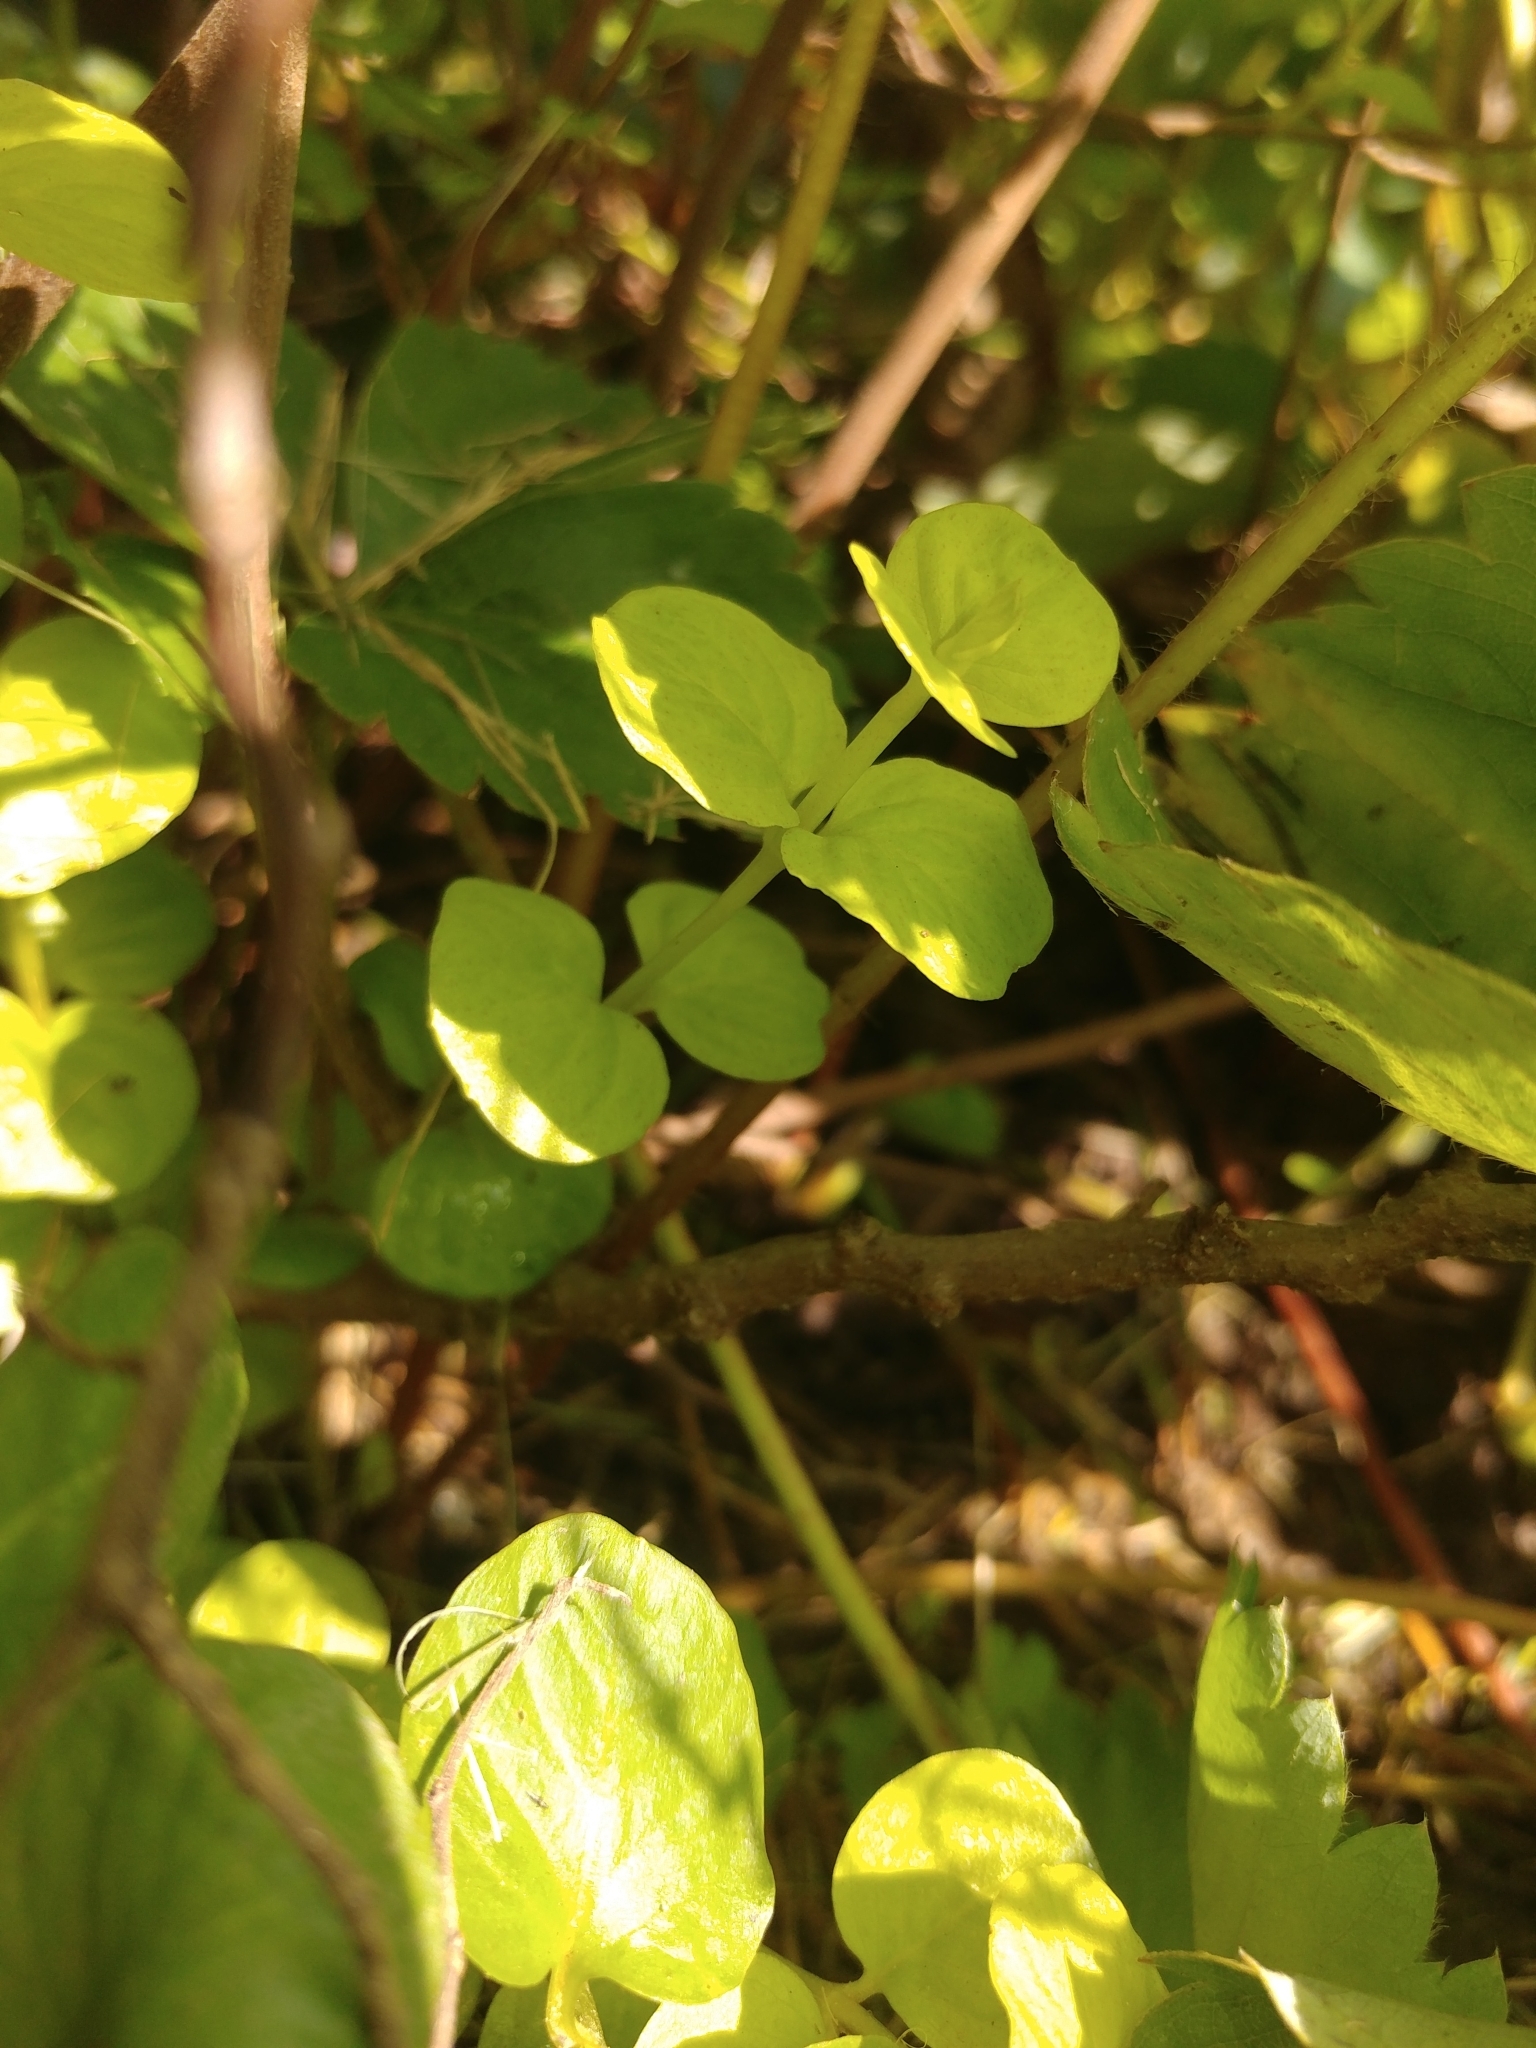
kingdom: Plantae
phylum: Tracheophyta
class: Magnoliopsida
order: Ericales
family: Primulaceae
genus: Lysimachia
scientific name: Lysimachia nummularia
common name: Moneywort
